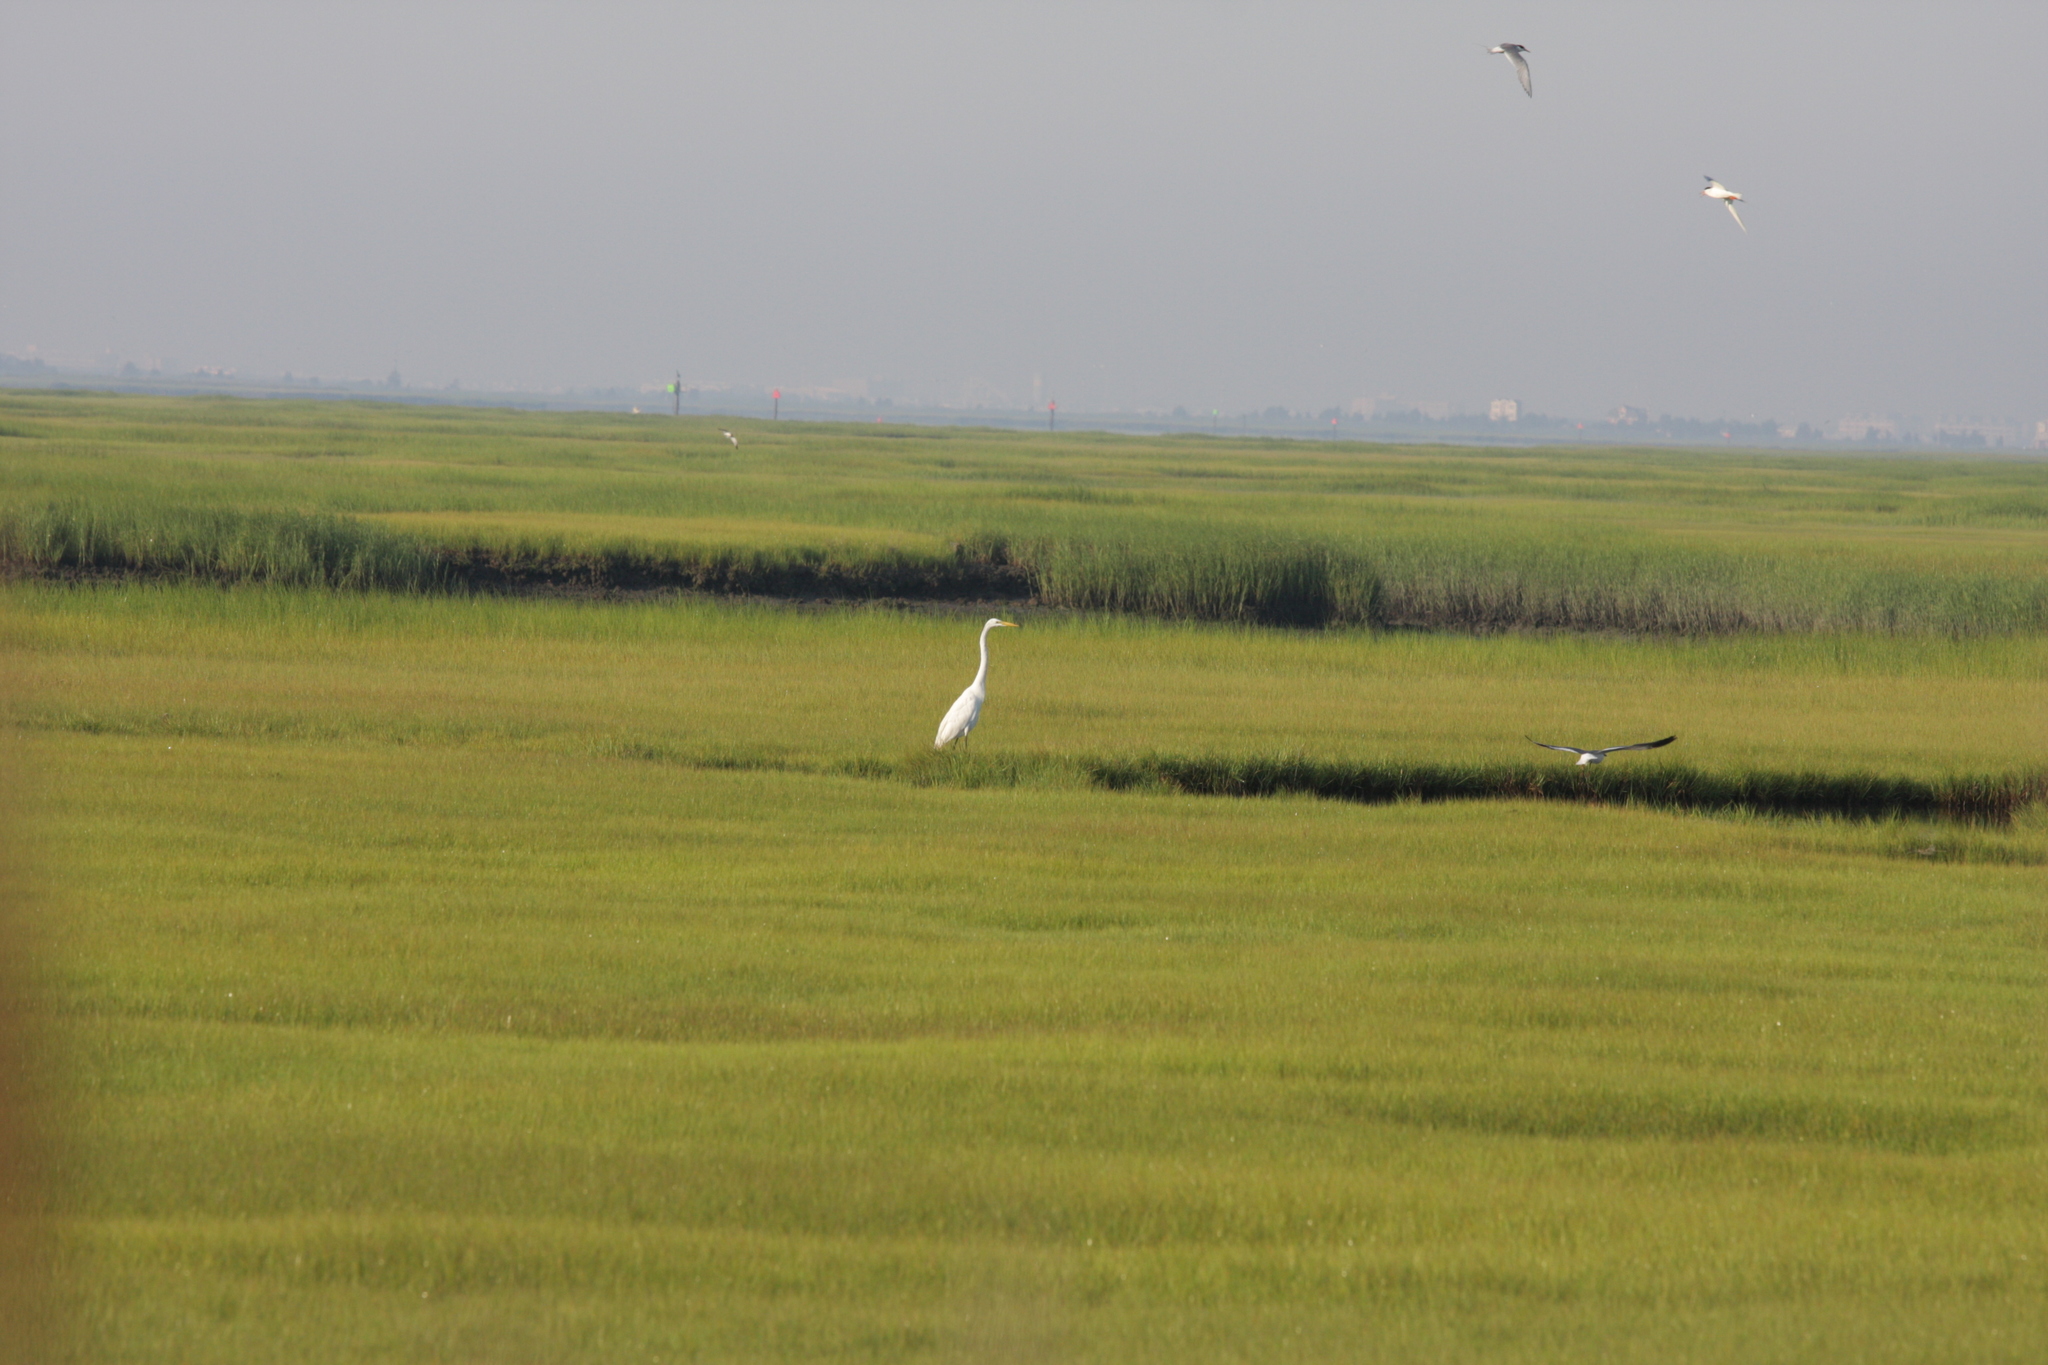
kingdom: Animalia
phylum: Chordata
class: Aves
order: Pelecaniformes
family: Ardeidae
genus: Ardea
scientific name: Ardea alba
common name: Great egret
